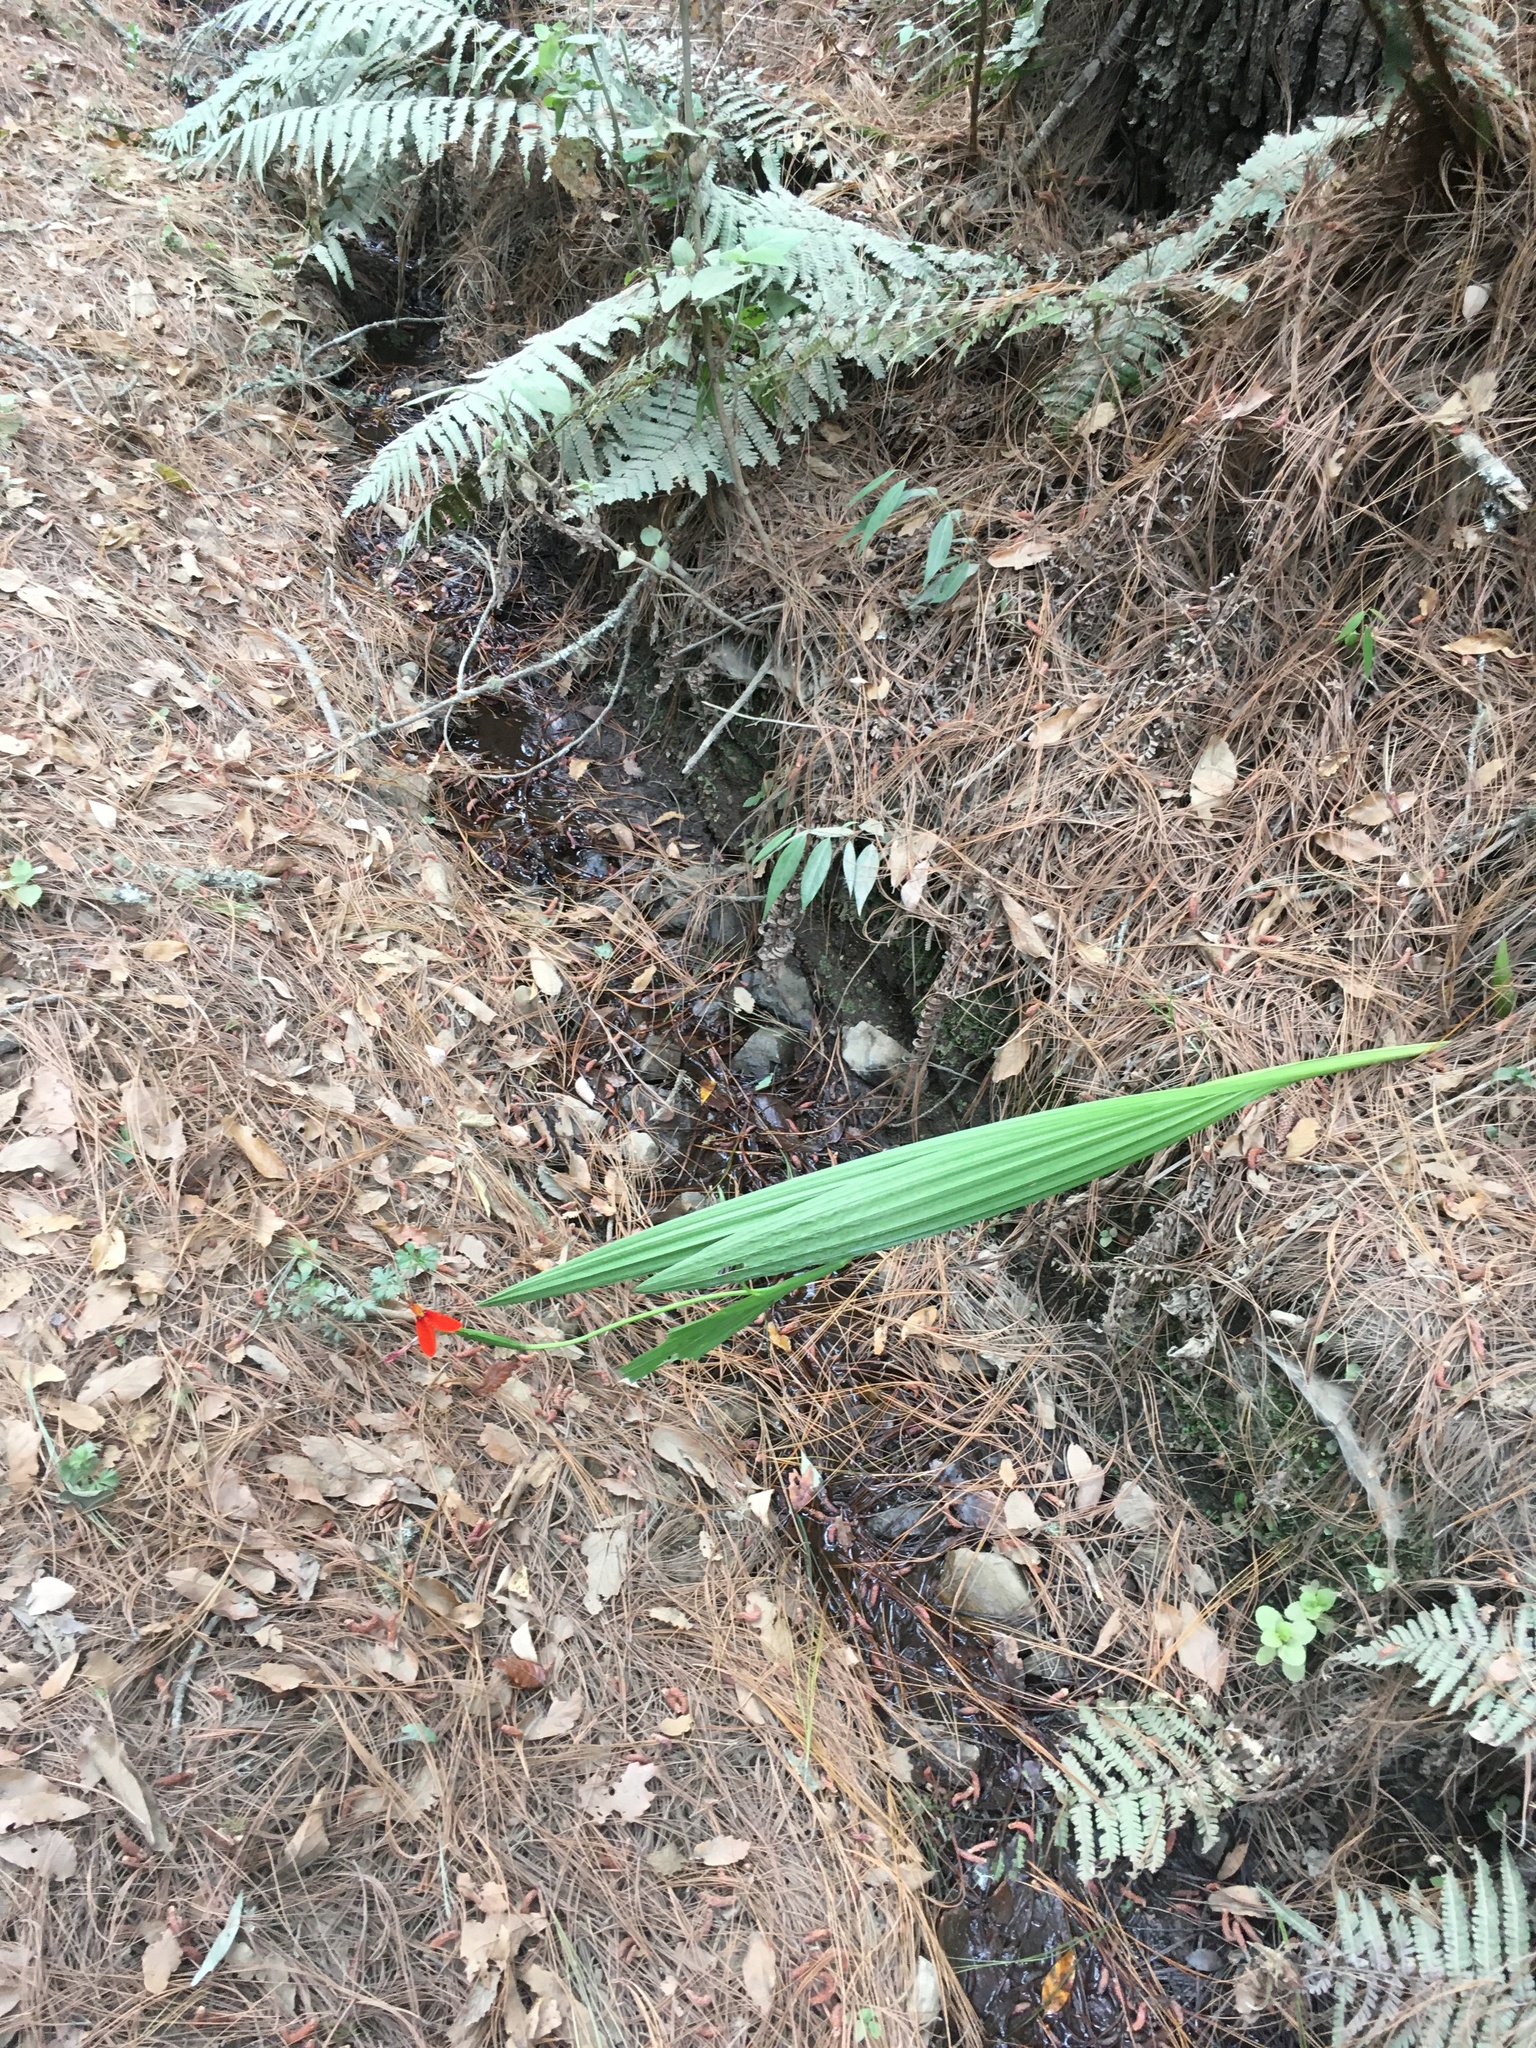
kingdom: Plantae
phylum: Tracheophyta
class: Liliopsida
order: Asparagales
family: Iridaceae
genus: Tigridia
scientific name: Tigridia orthantha
